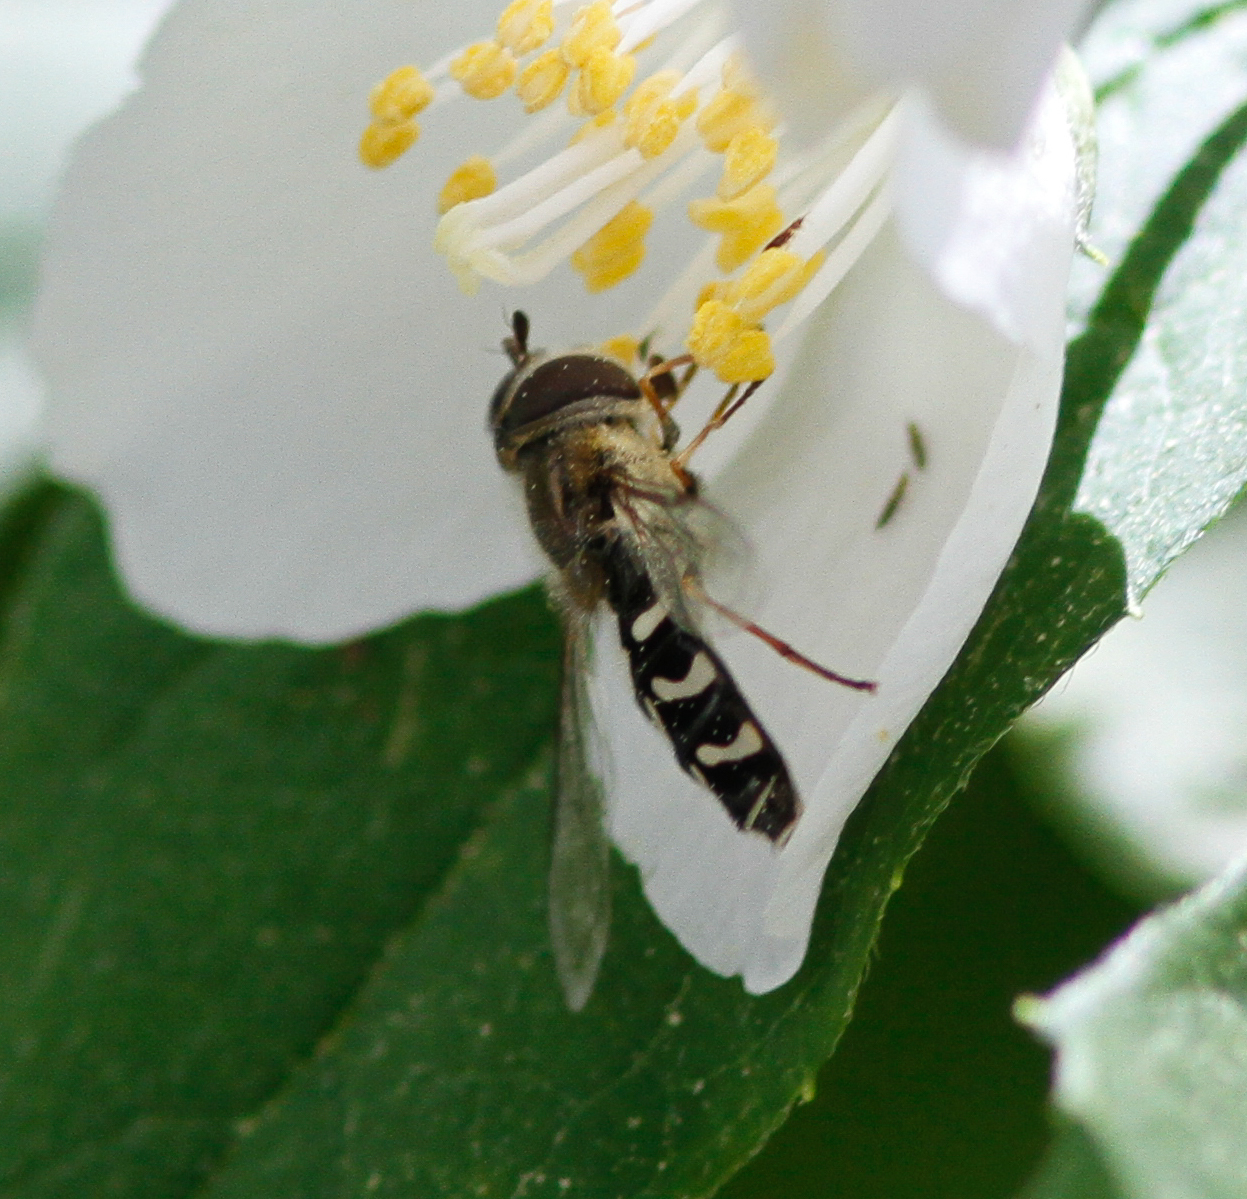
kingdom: Animalia
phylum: Arthropoda
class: Insecta
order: Diptera
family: Syrphidae
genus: Scaeva
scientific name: Scaeva affinis
